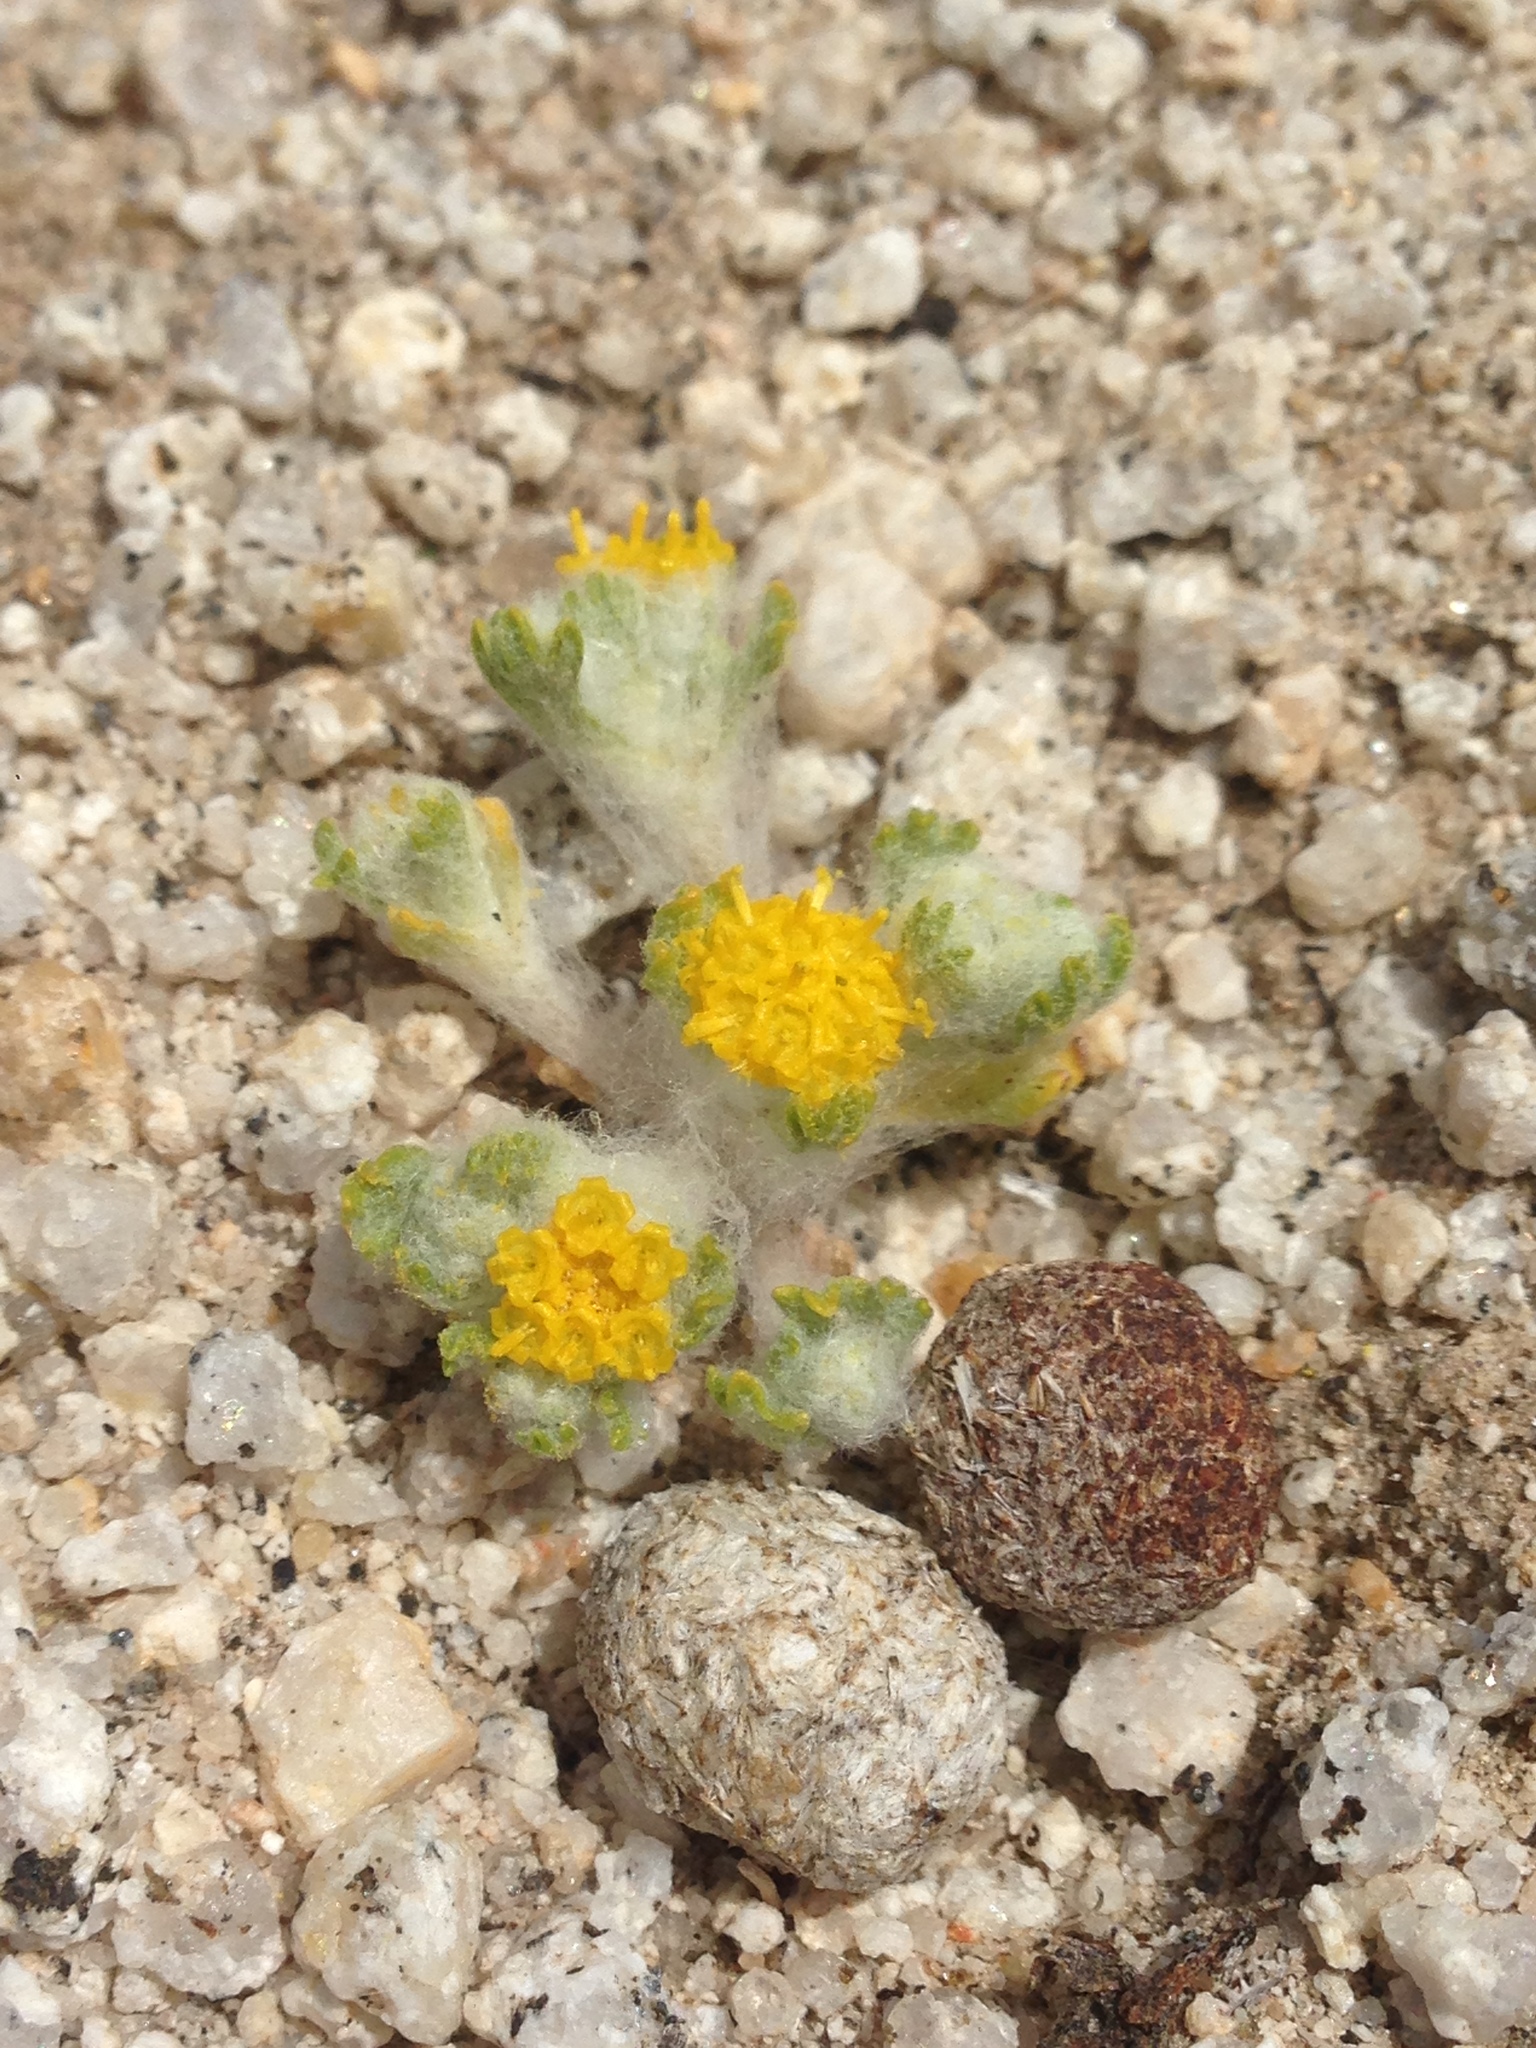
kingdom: Plantae
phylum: Tracheophyta
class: Magnoliopsida
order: Asterales
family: Asteraceae
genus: Eriophyllum
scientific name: Eriophyllum pringlei
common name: Pringle's woolly-sunflower
